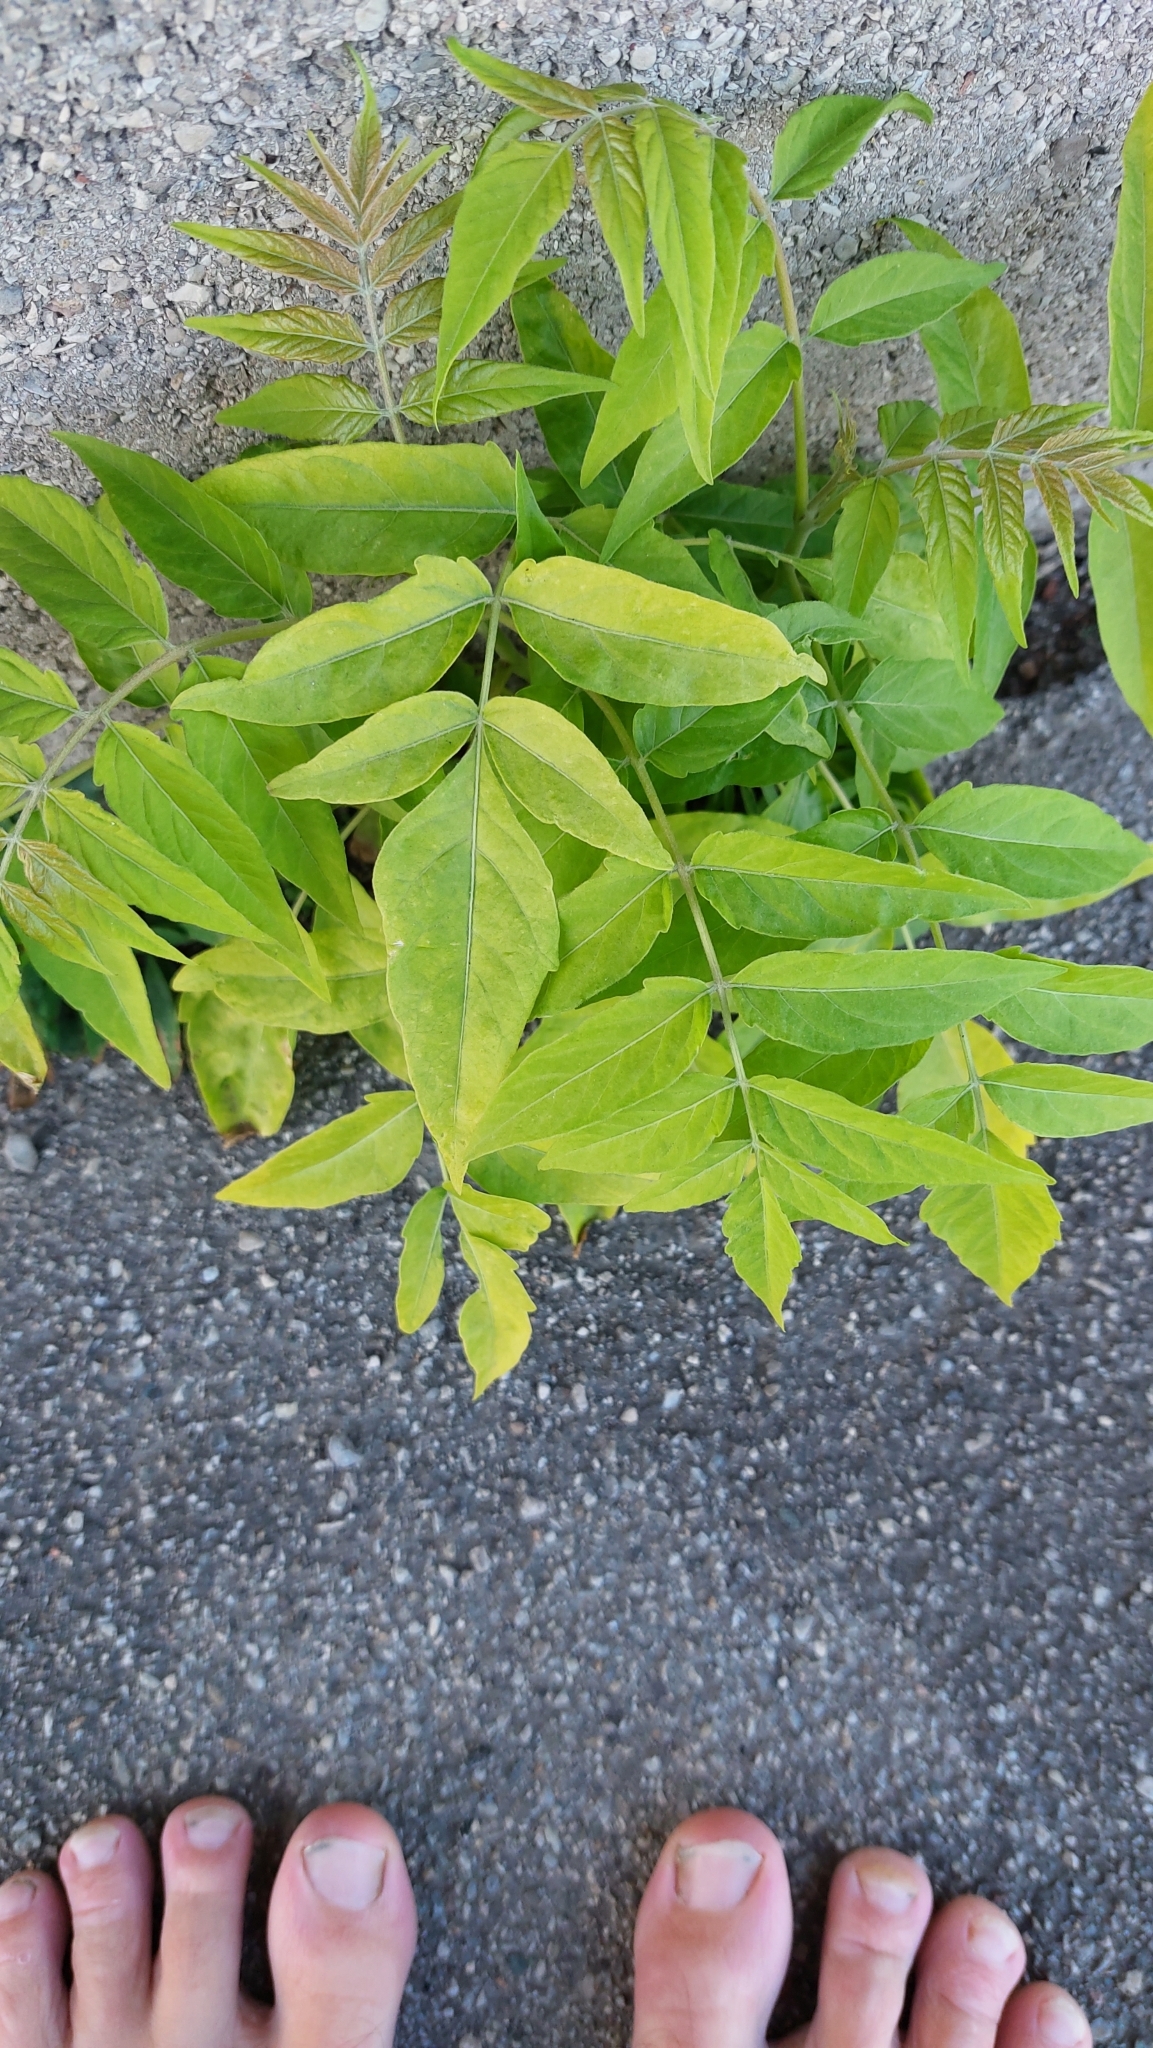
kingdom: Plantae
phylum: Tracheophyta
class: Magnoliopsida
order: Sapindales
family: Simaroubaceae
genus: Ailanthus
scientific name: Ailanthus altissima
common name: Tree-of-heaven
